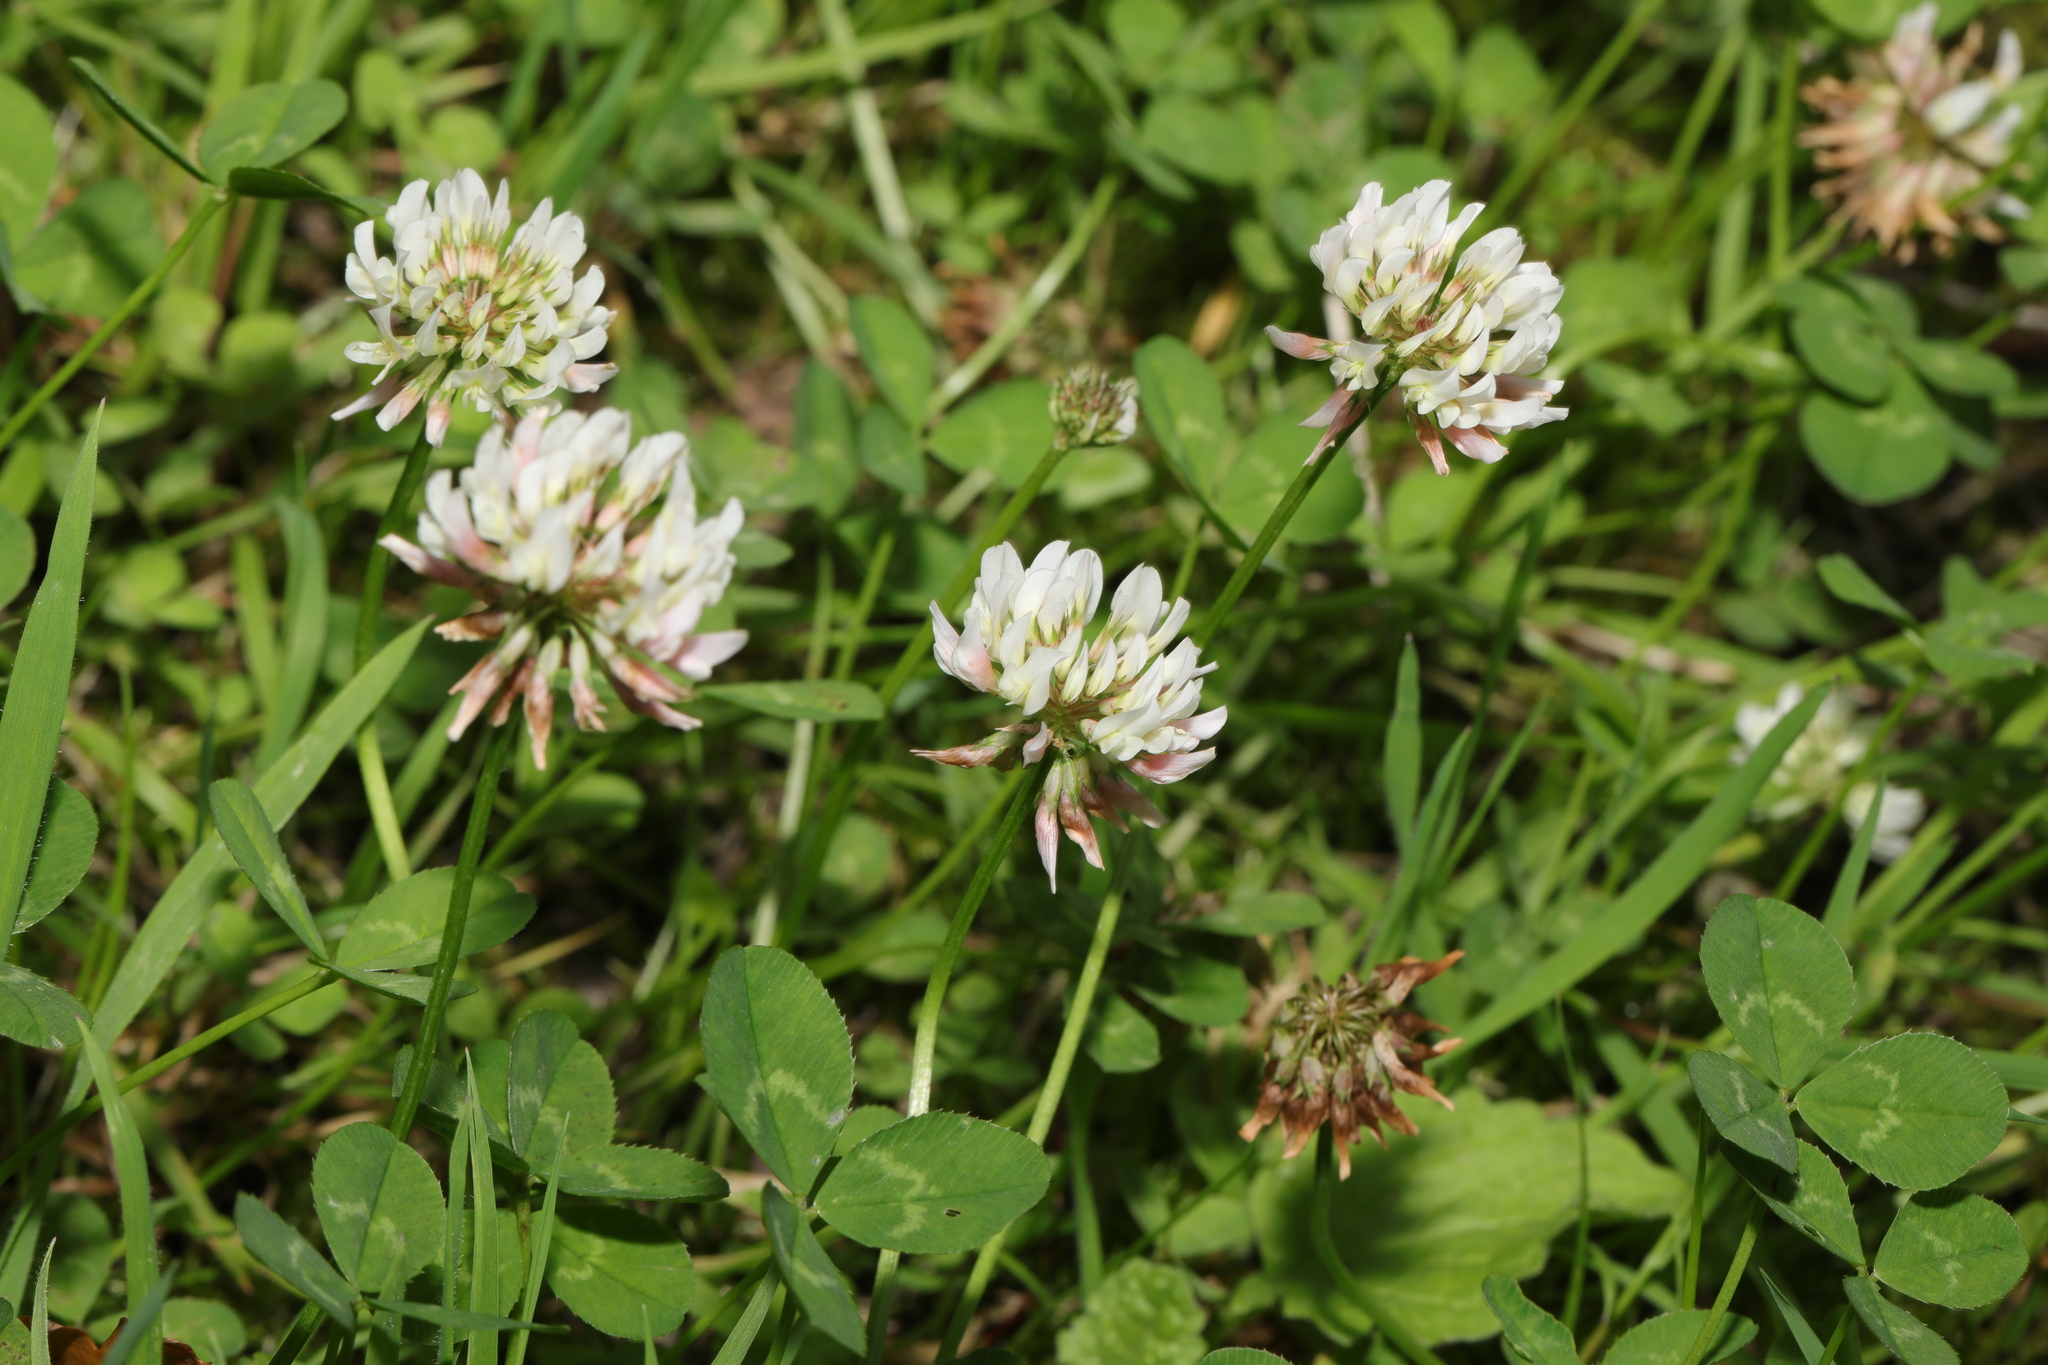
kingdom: Plantae
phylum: Tracheophyta
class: Magnoliopsida
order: Fabales
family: Fabaceae
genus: Trifolium
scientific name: Trifolium repens
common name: White clover
